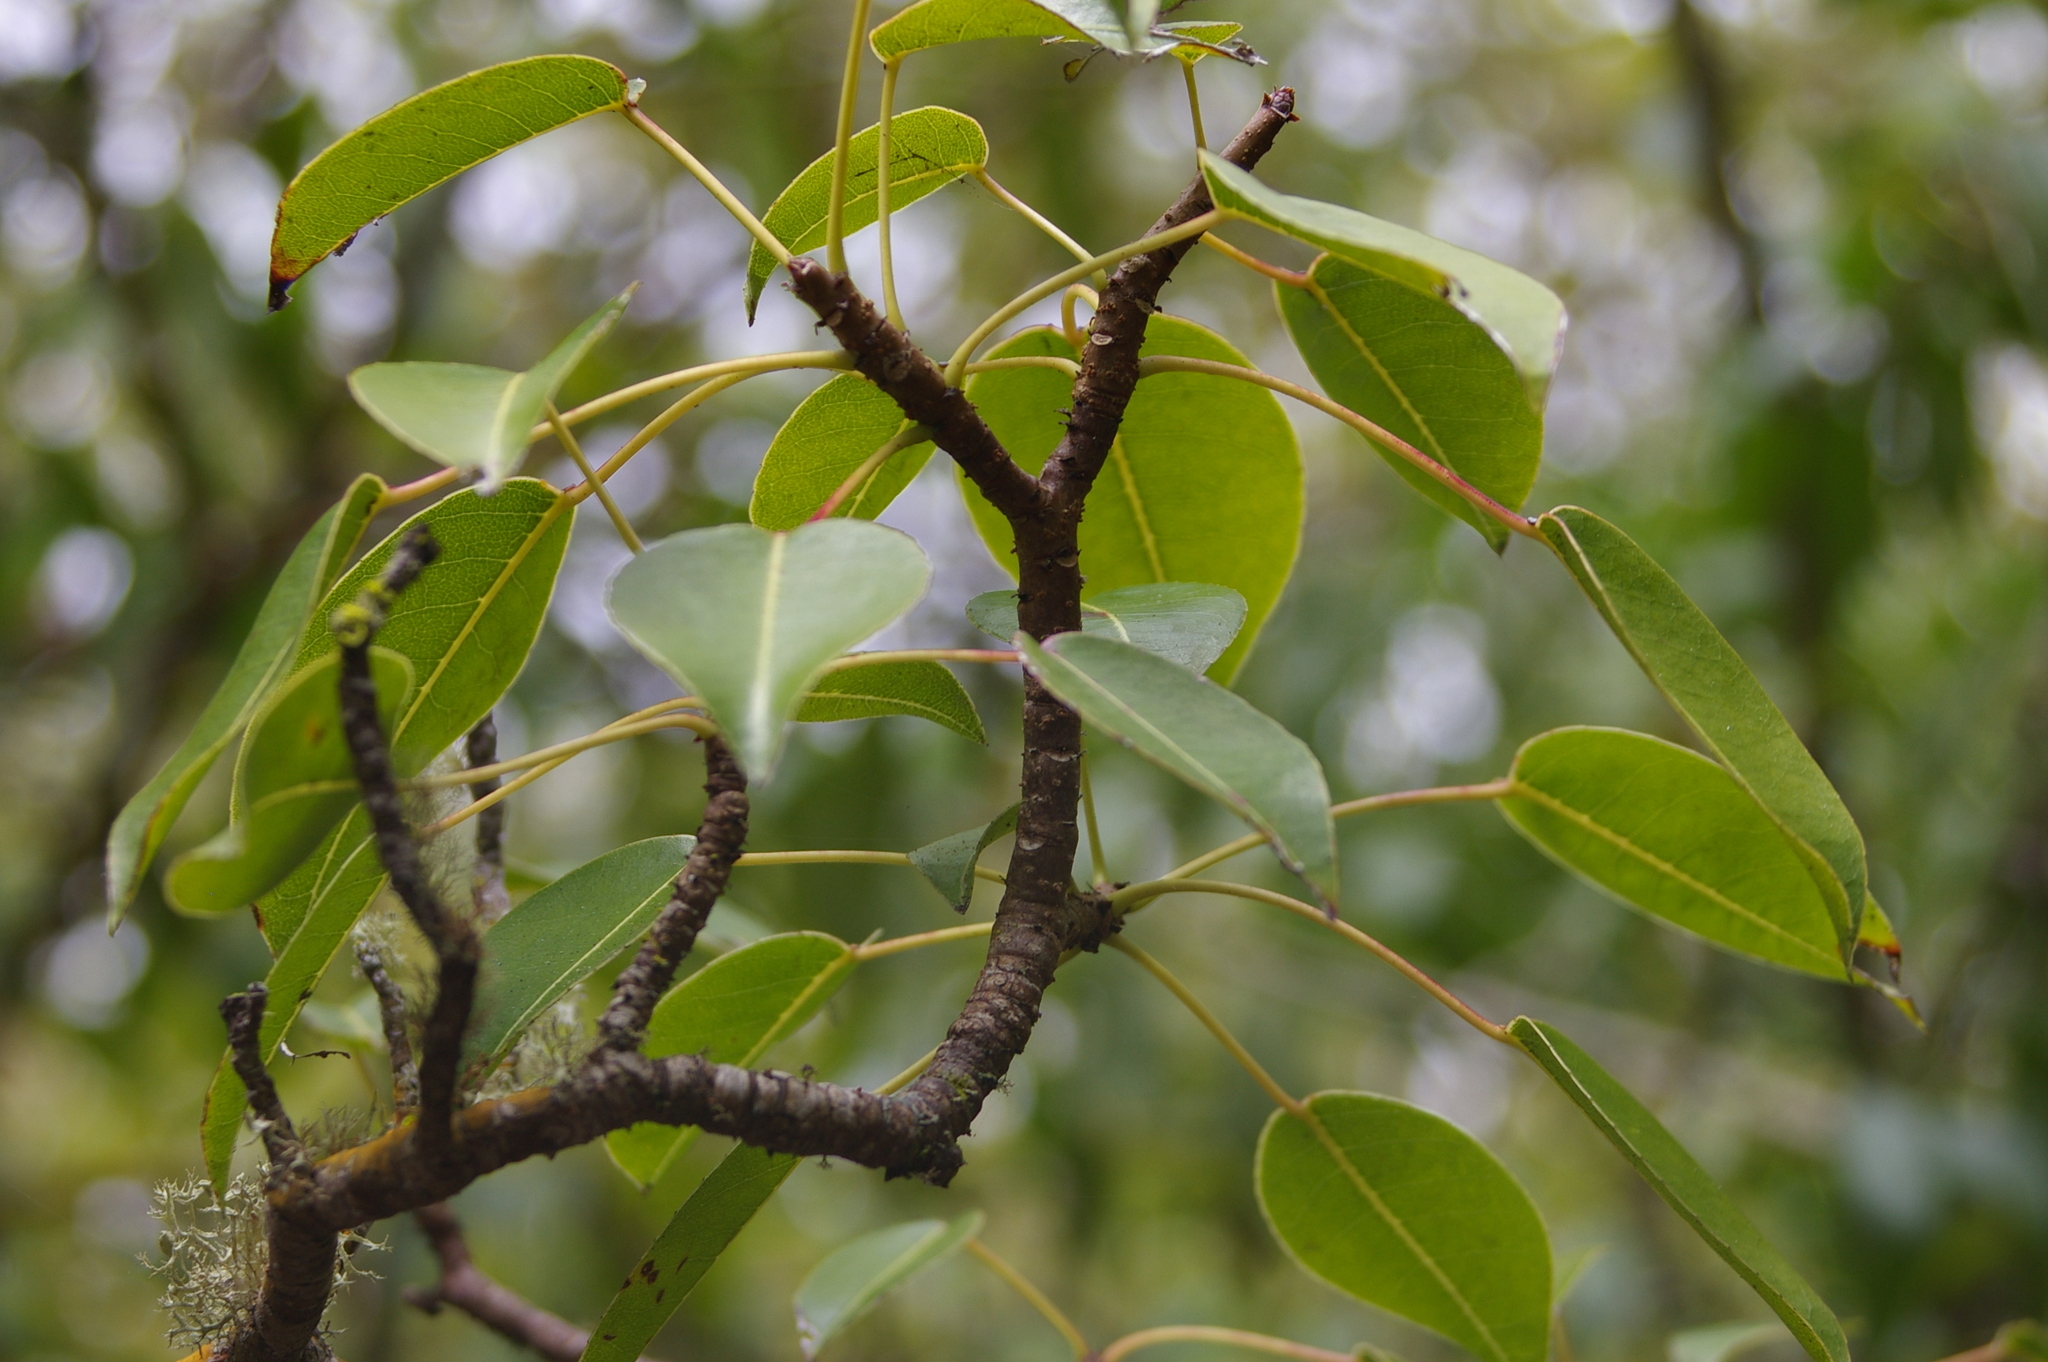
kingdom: Plantae
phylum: Tracheophyta
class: Magnoliopsida
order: Malpighiales
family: Euphorbiaceae
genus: Hippomane
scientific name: Hippomane mancinella
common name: Manchineel
